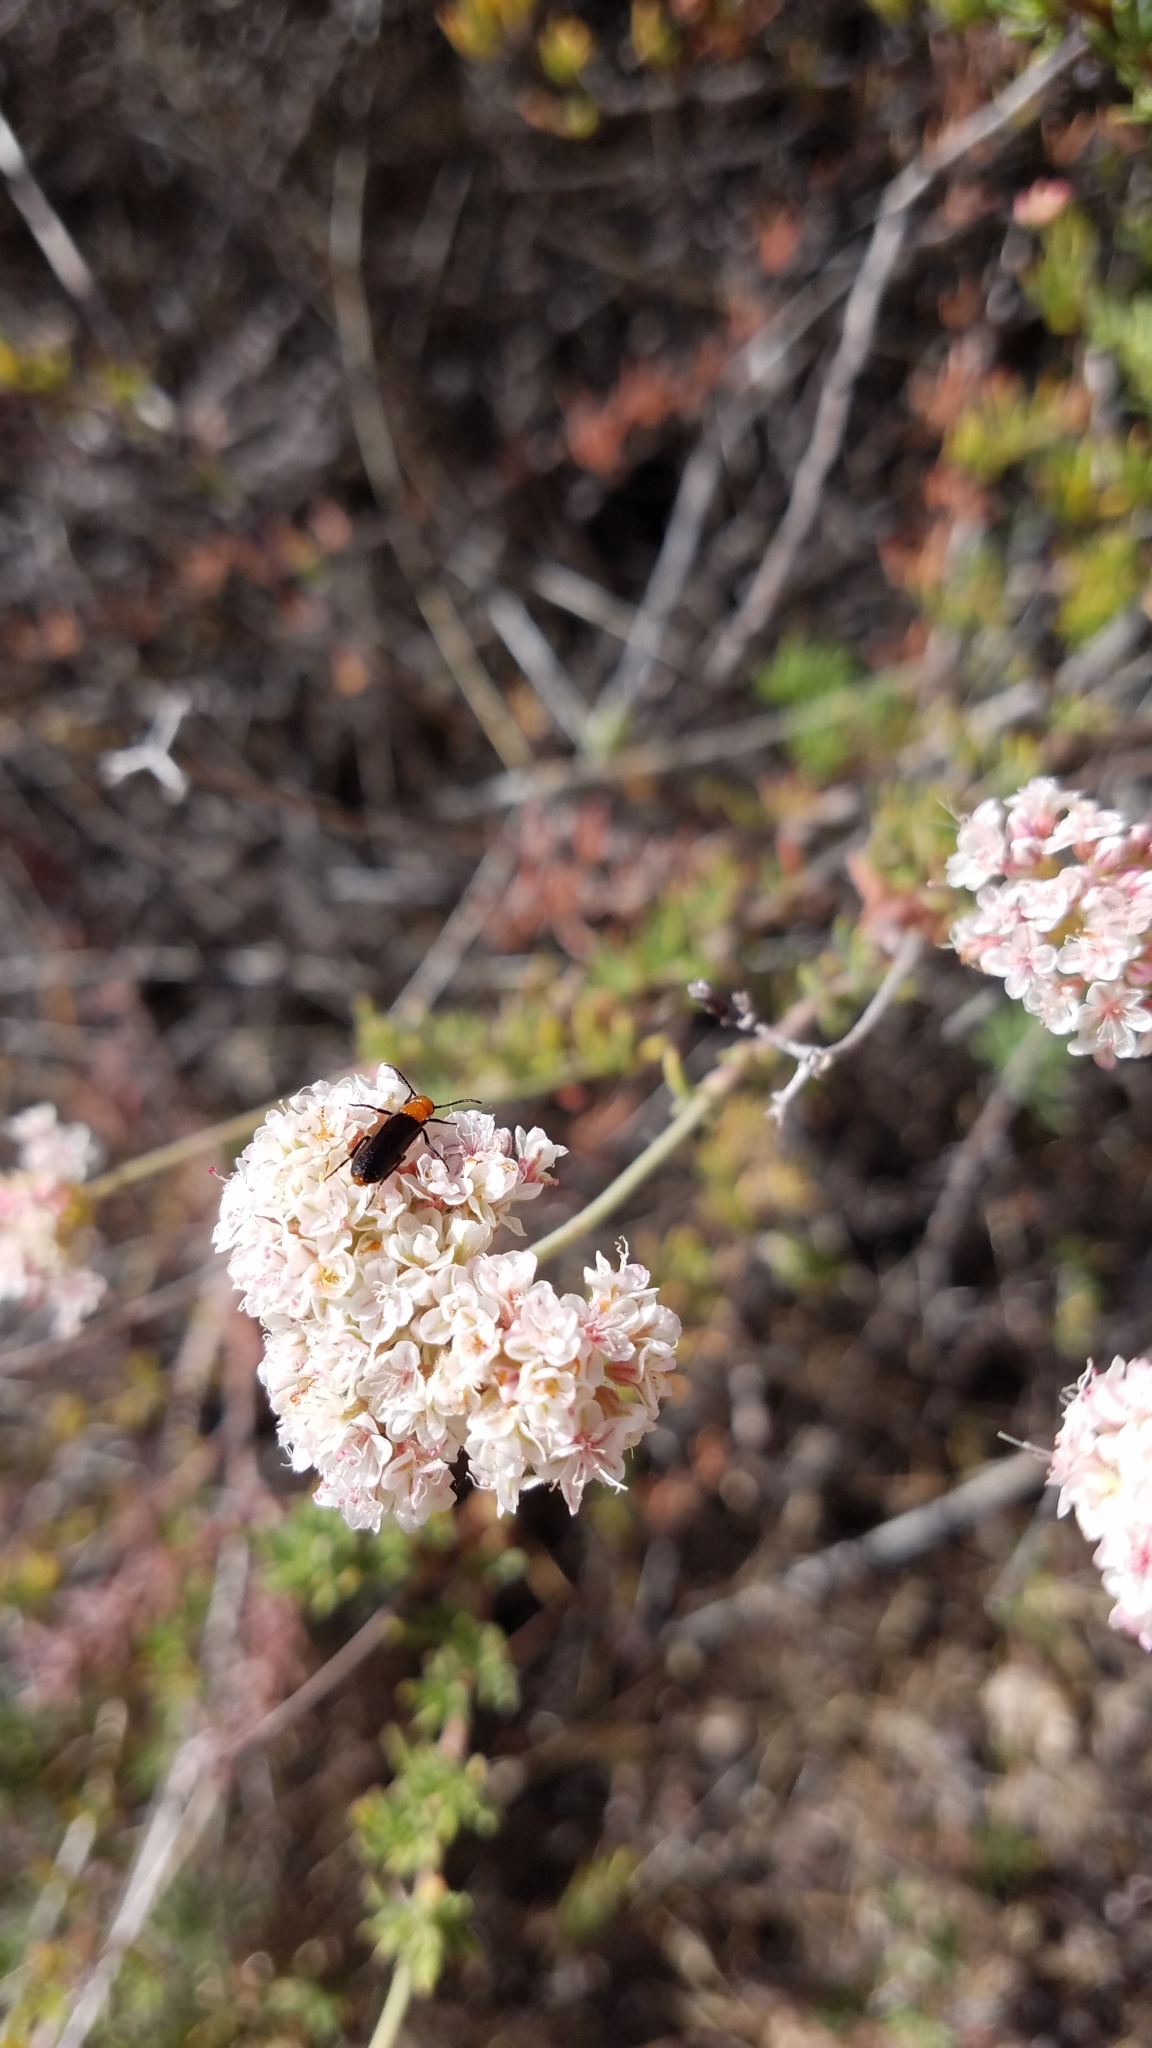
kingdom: Plantae
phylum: Tracheophyta
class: Magnoliopsida
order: Caryophyllales
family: Polygonaceae
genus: Eriogonum
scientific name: Eriogonum fasciculatum
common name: California wild buckwheat
